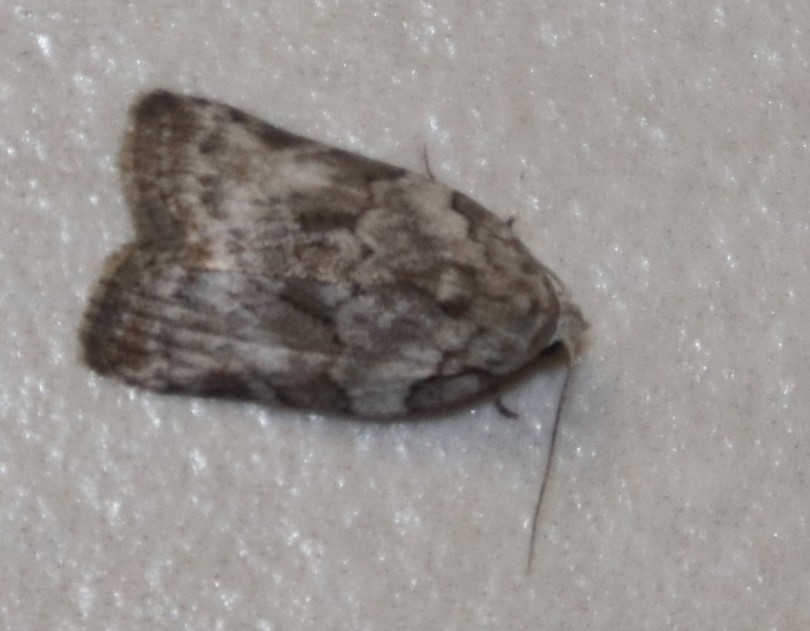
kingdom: Animalia
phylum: Arthropoda
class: Insecta
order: Lepidoptera
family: Nolidae
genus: Pardasena
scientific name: Pardasena virgulana
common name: Grey square
